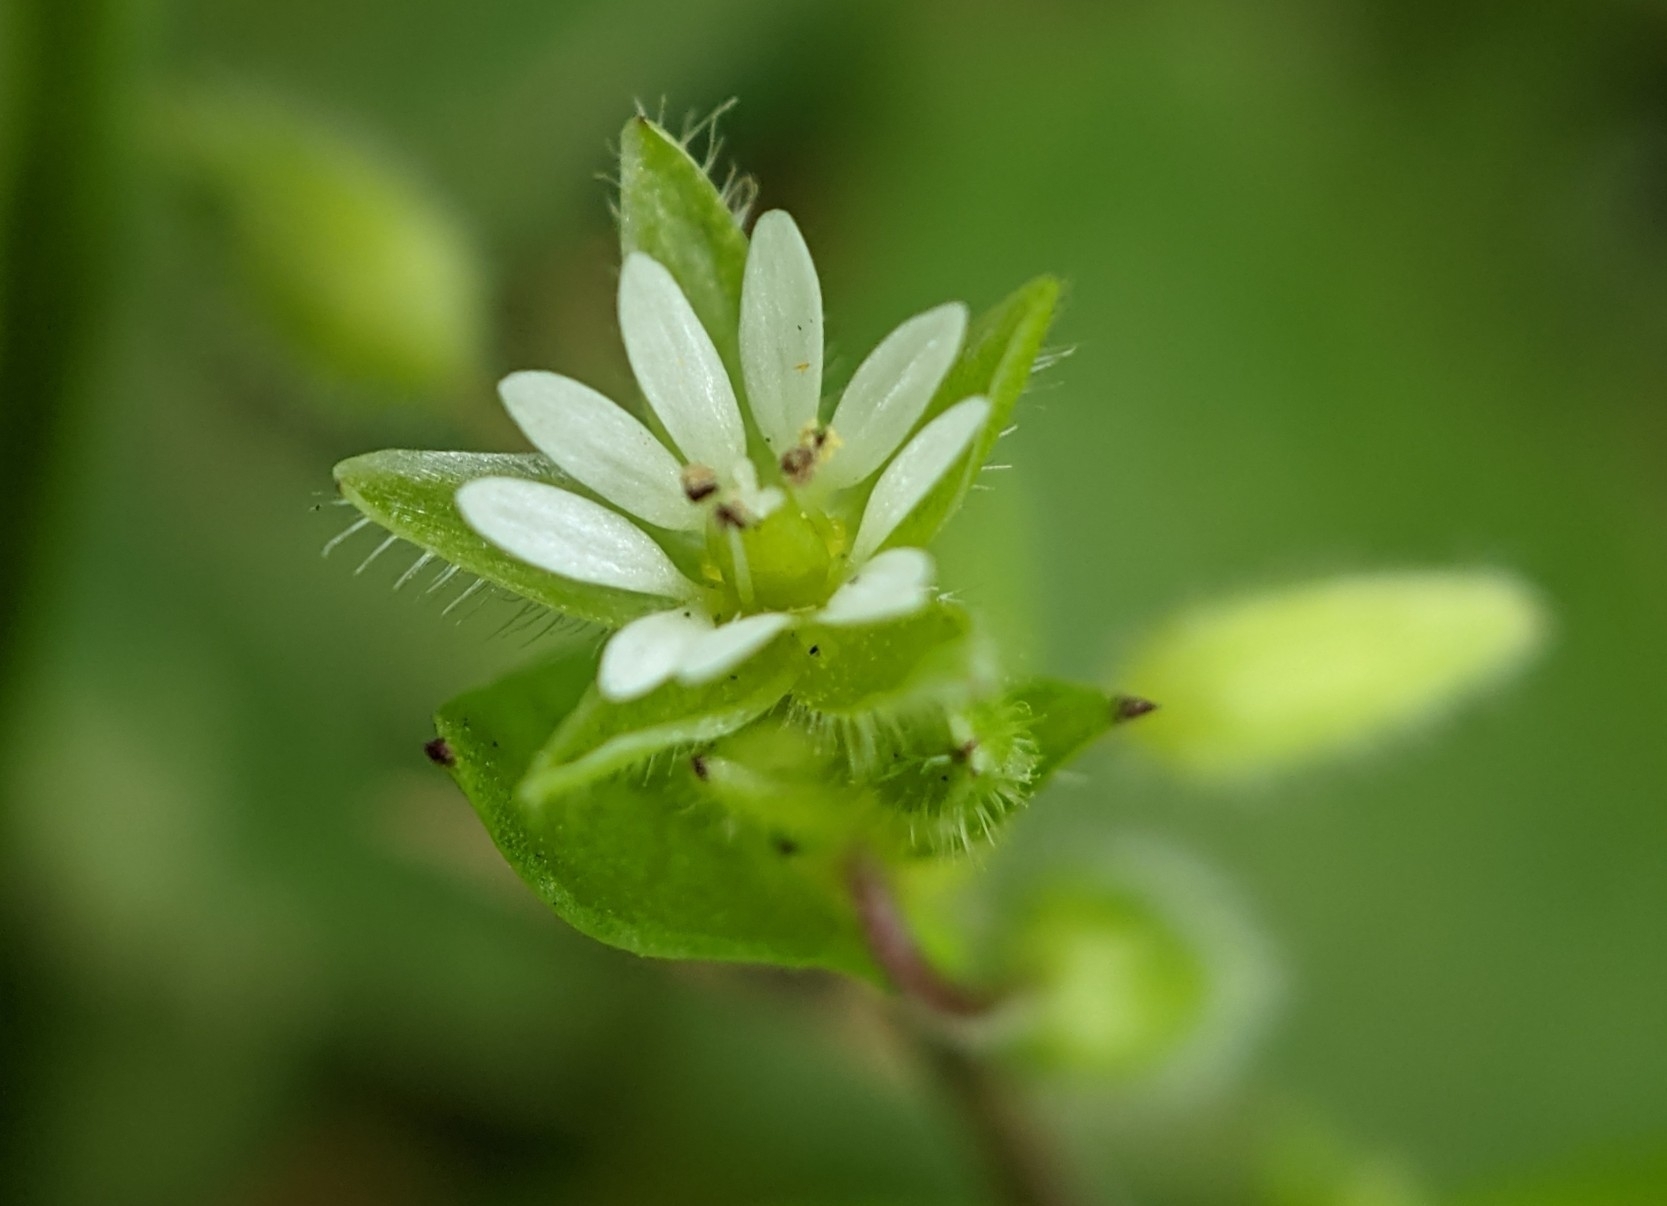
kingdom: Plantae
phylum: Tracheophyta
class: Magnoliopsida
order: Caryophyllales
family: Caryophyllaceae
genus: Stellaria
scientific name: Stellaria media
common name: Common chickweed
